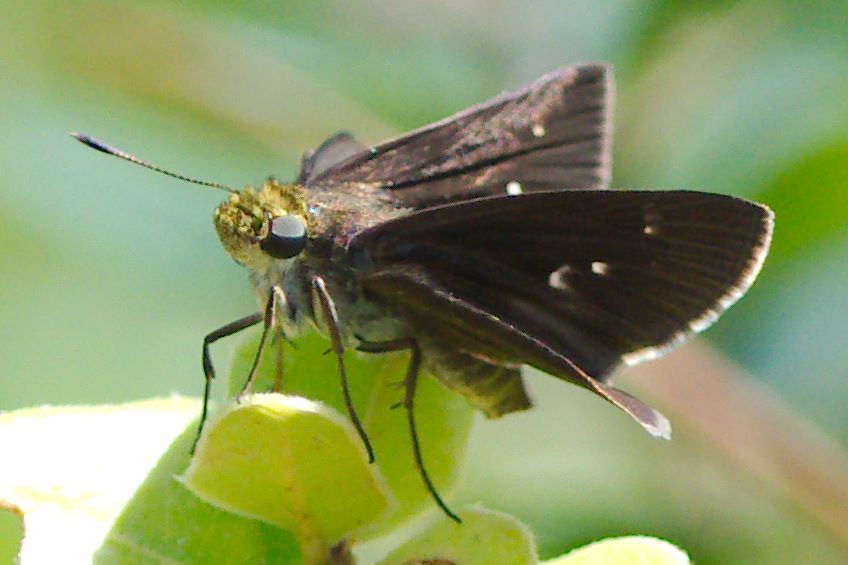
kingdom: Animalia
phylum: Arthropoda
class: Insecta
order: Lepidoptera
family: Hesperiidae
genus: Euphyes
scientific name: Euphyes vestris
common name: Dun skipper
